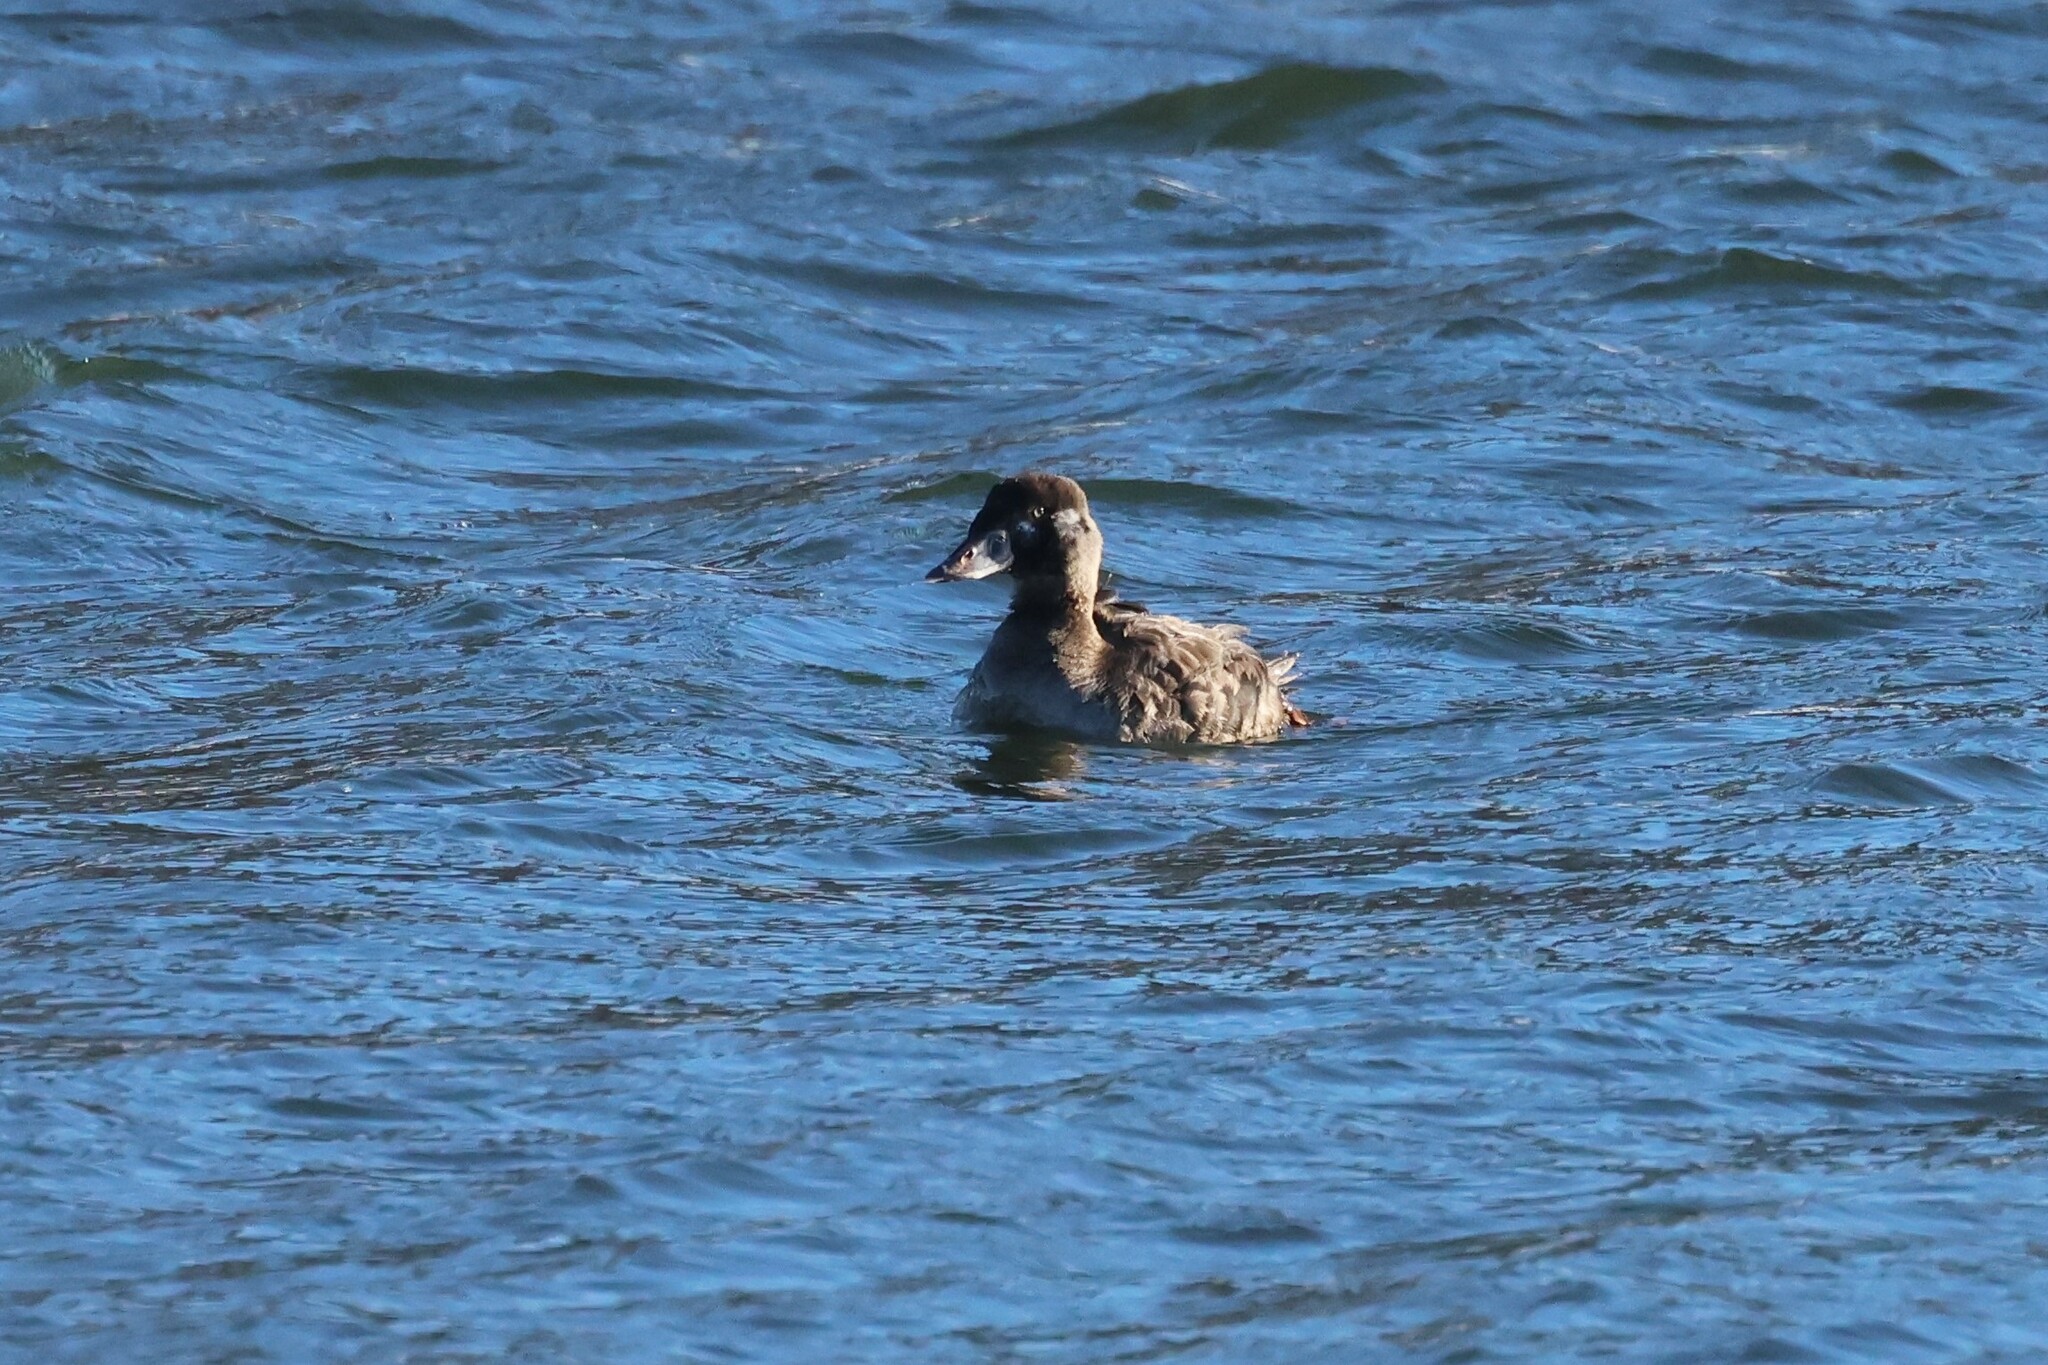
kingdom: Animalia
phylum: Chordata
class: Aves
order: Anseriformes
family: Anatidae
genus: Melanitta
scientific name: Melanitta perspicillata
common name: Surf scoter
